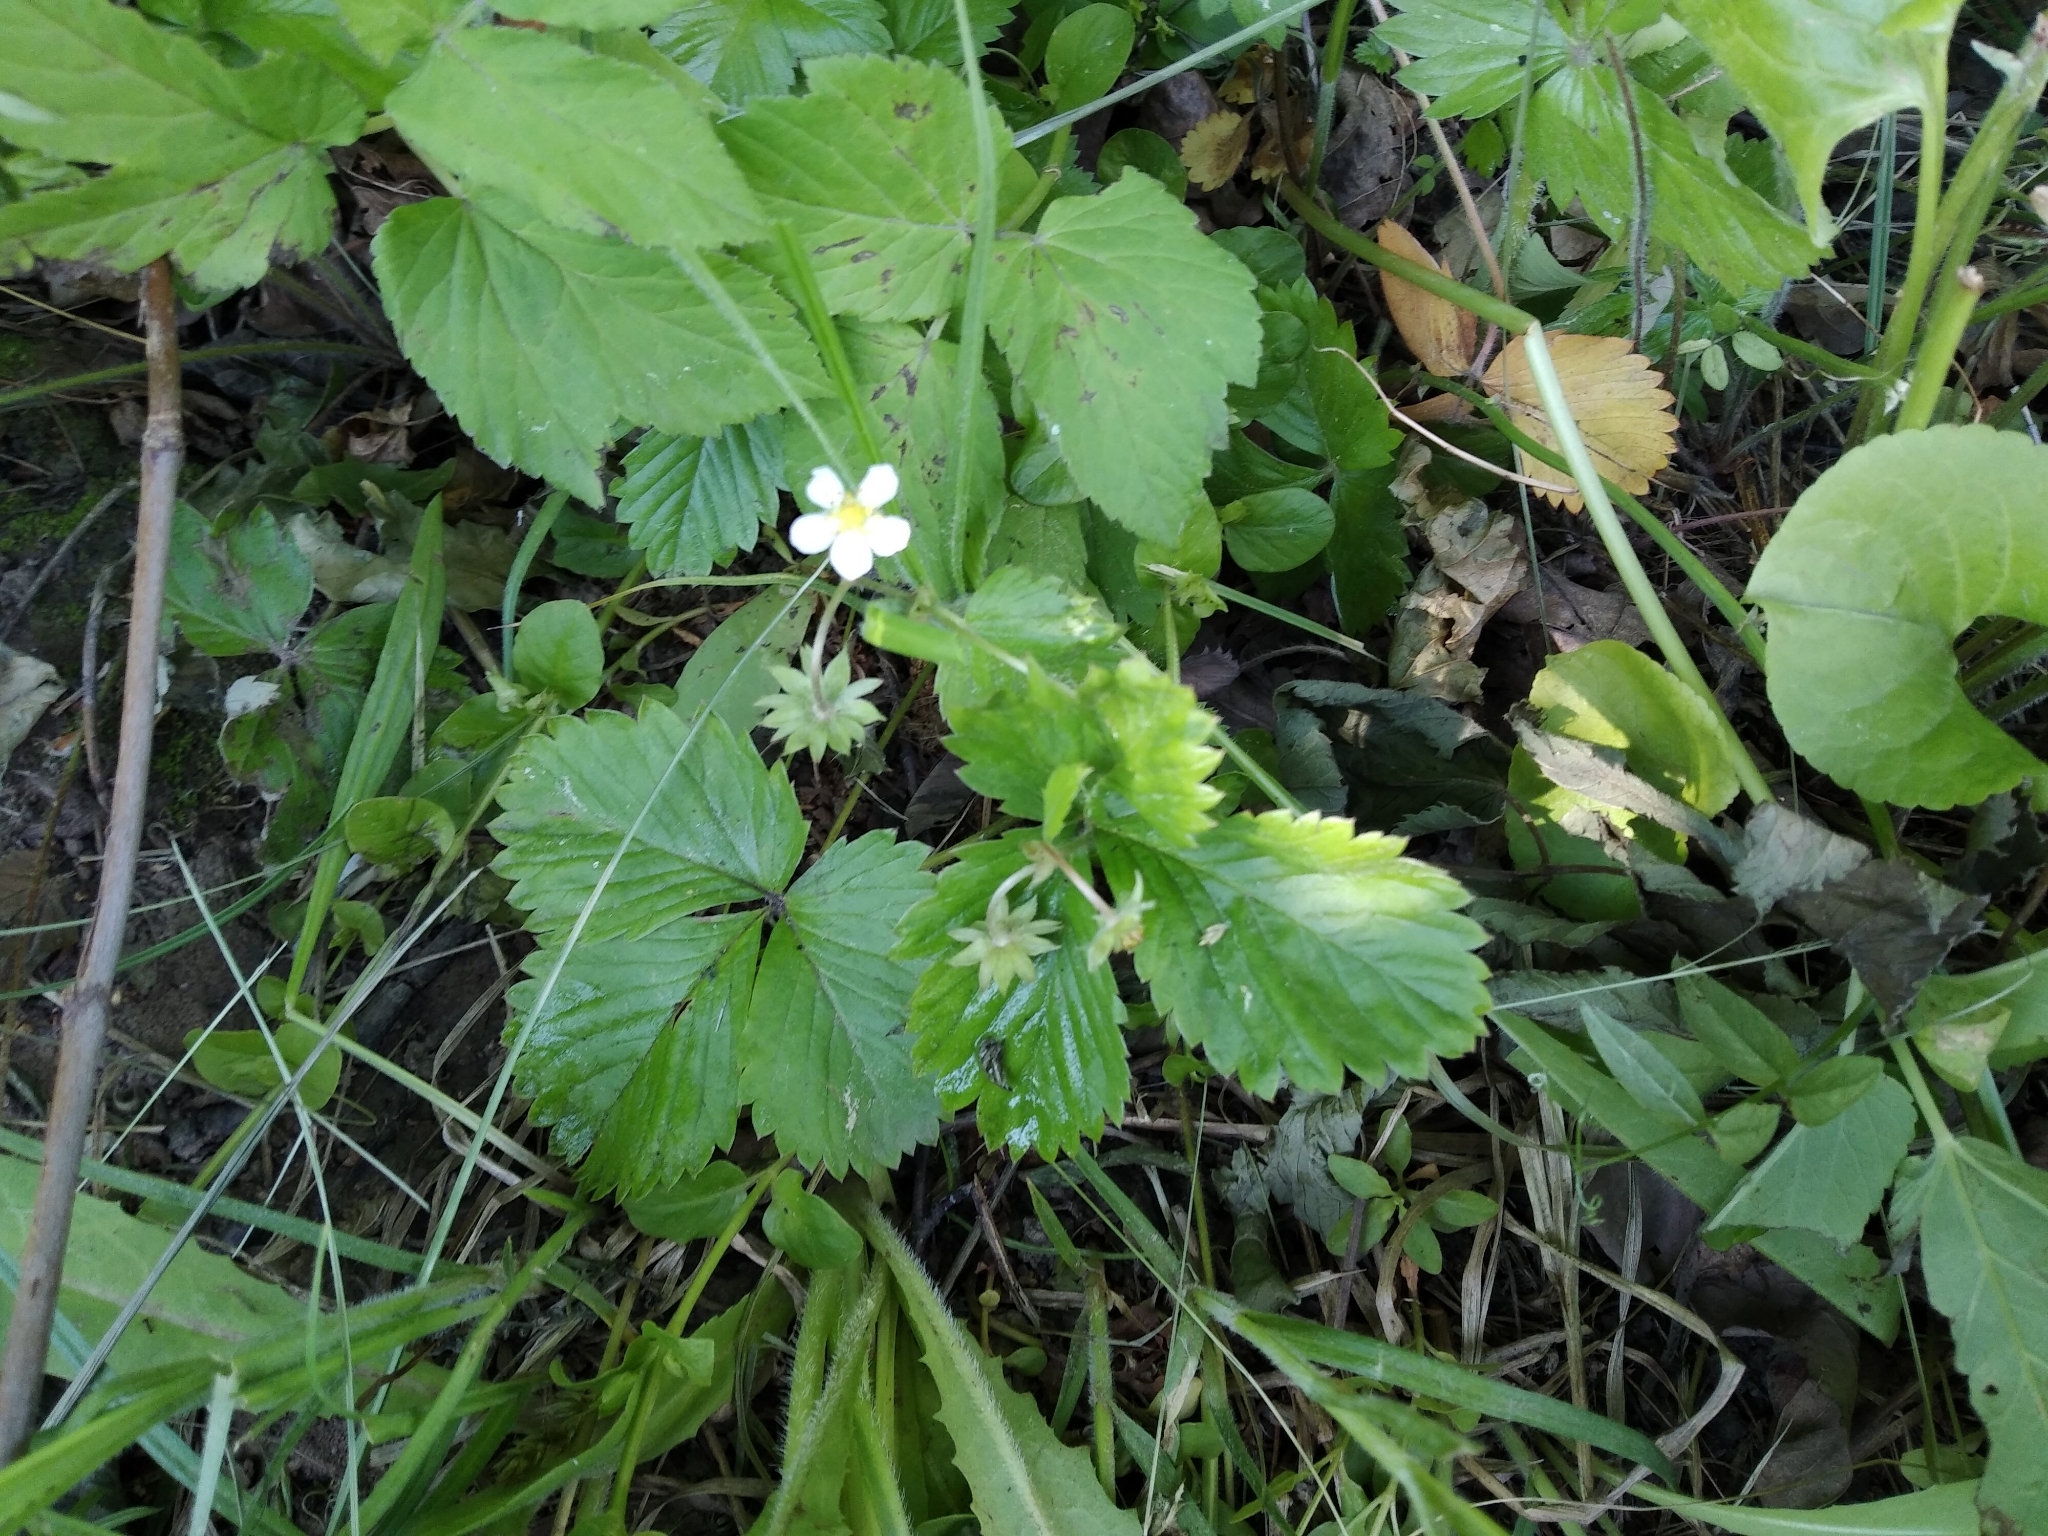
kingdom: Plantae
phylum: Tracheophyta
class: Magnoliopsida
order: Rosales
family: Rosaceae
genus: Fragaria
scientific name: Fragaria vesca
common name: Wild strawberry
